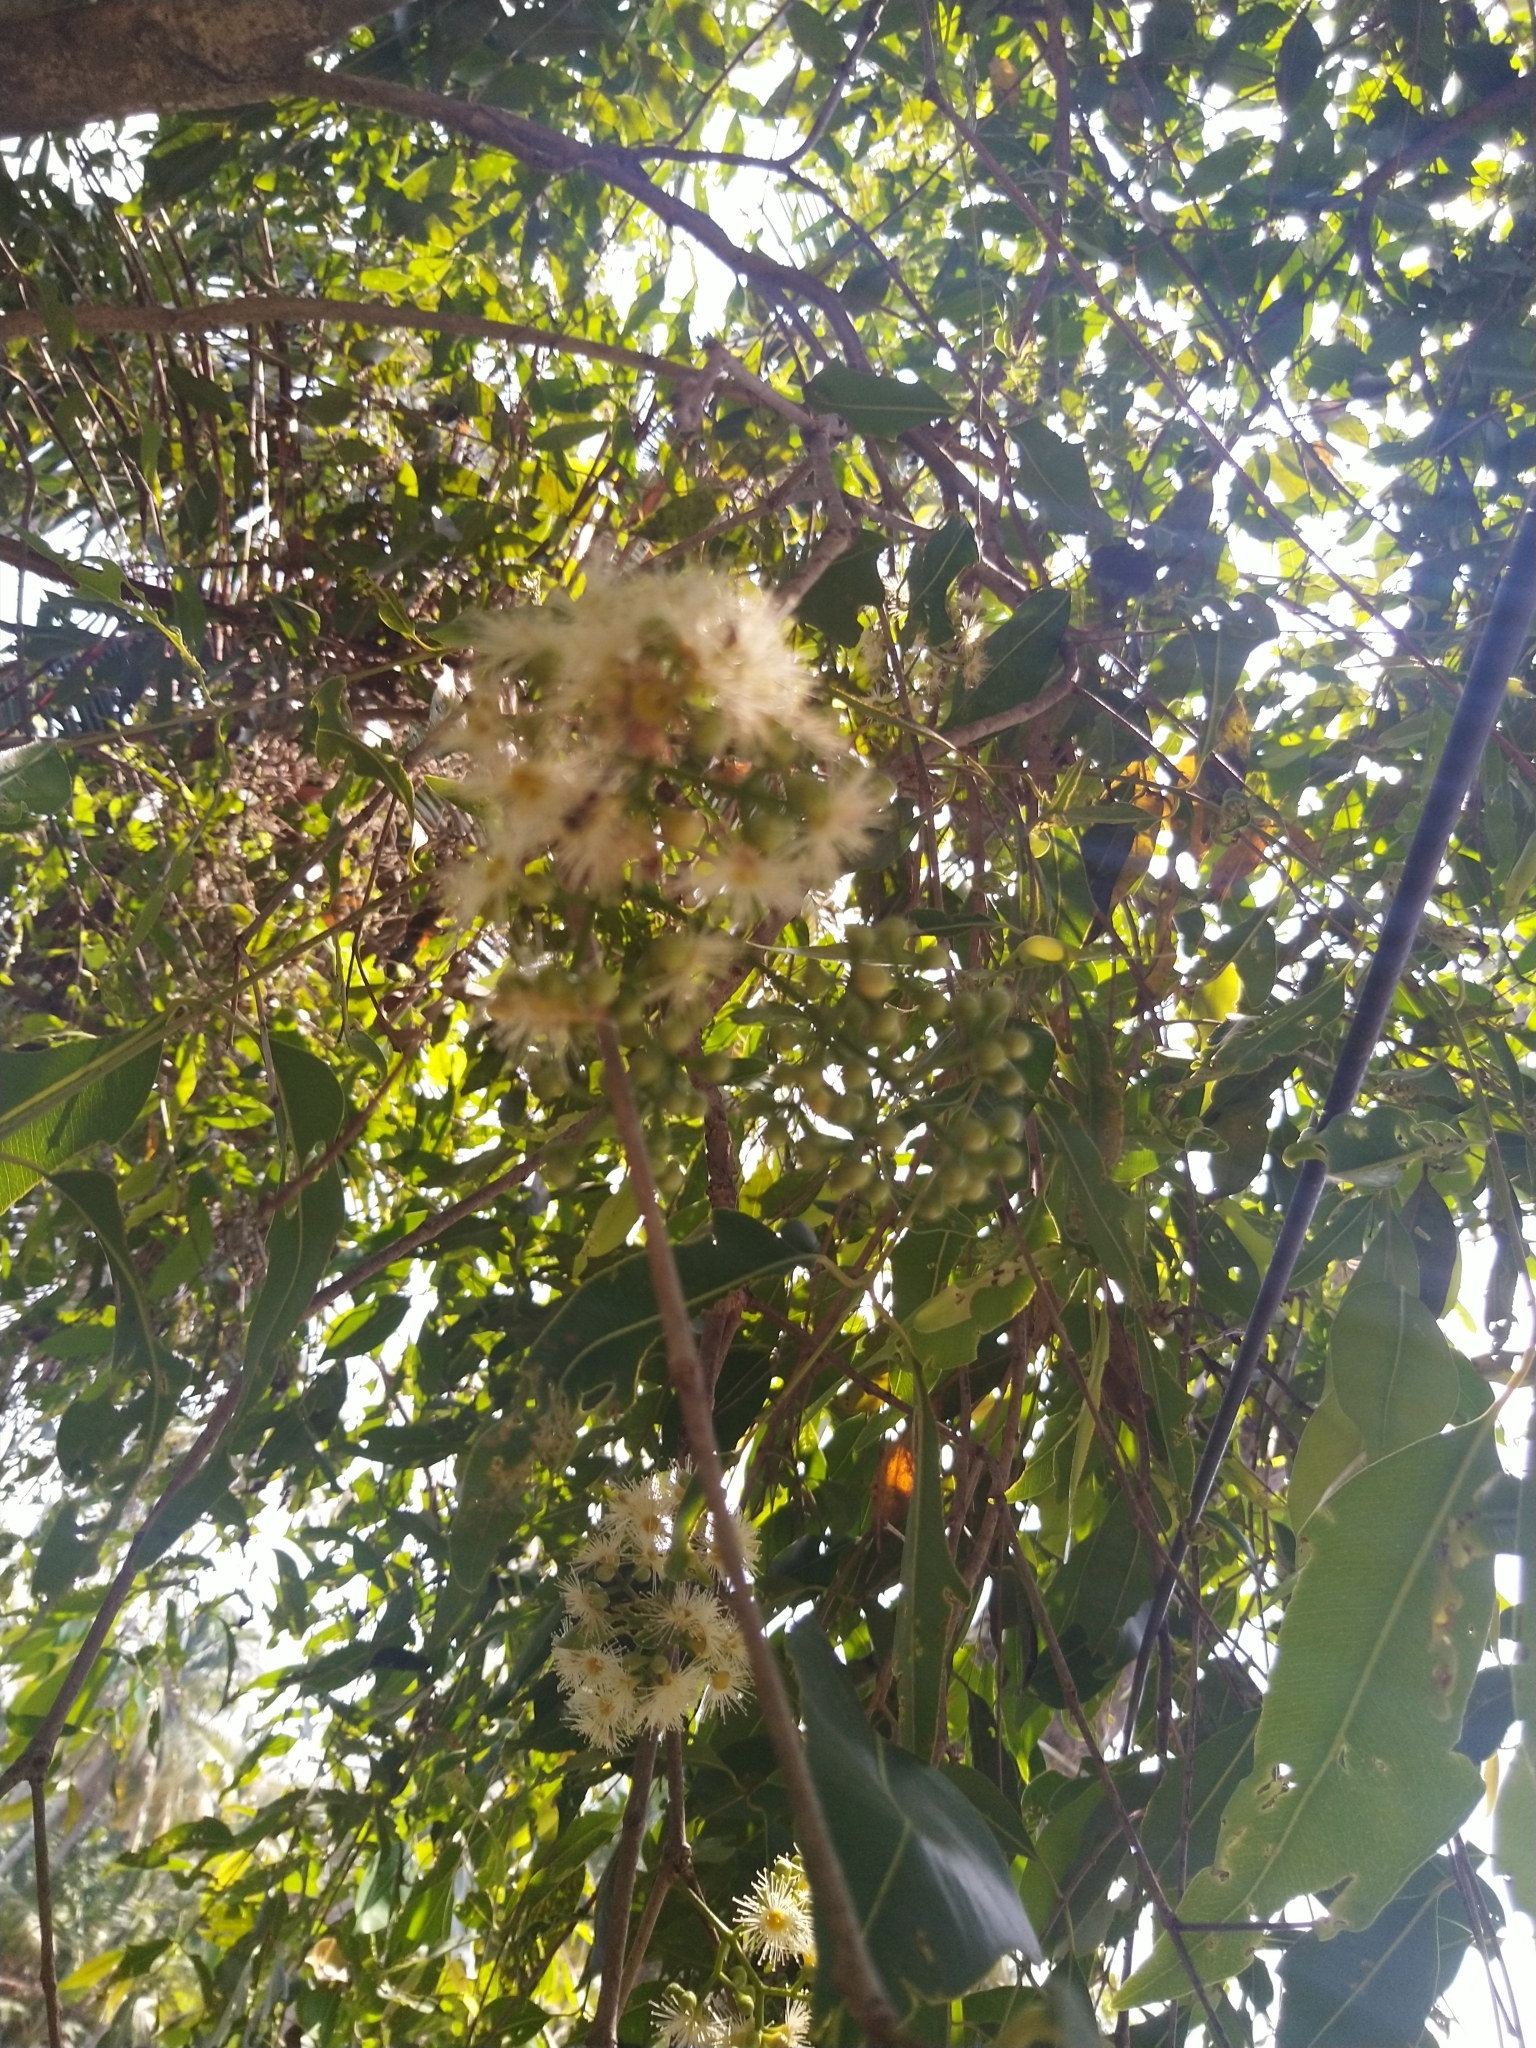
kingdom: Plantae
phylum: Tracheophyta
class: Magnoliopsida
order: Myrtales
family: Myrtaceae
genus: Syzygium
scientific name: Syzygium cumini
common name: Java plum
